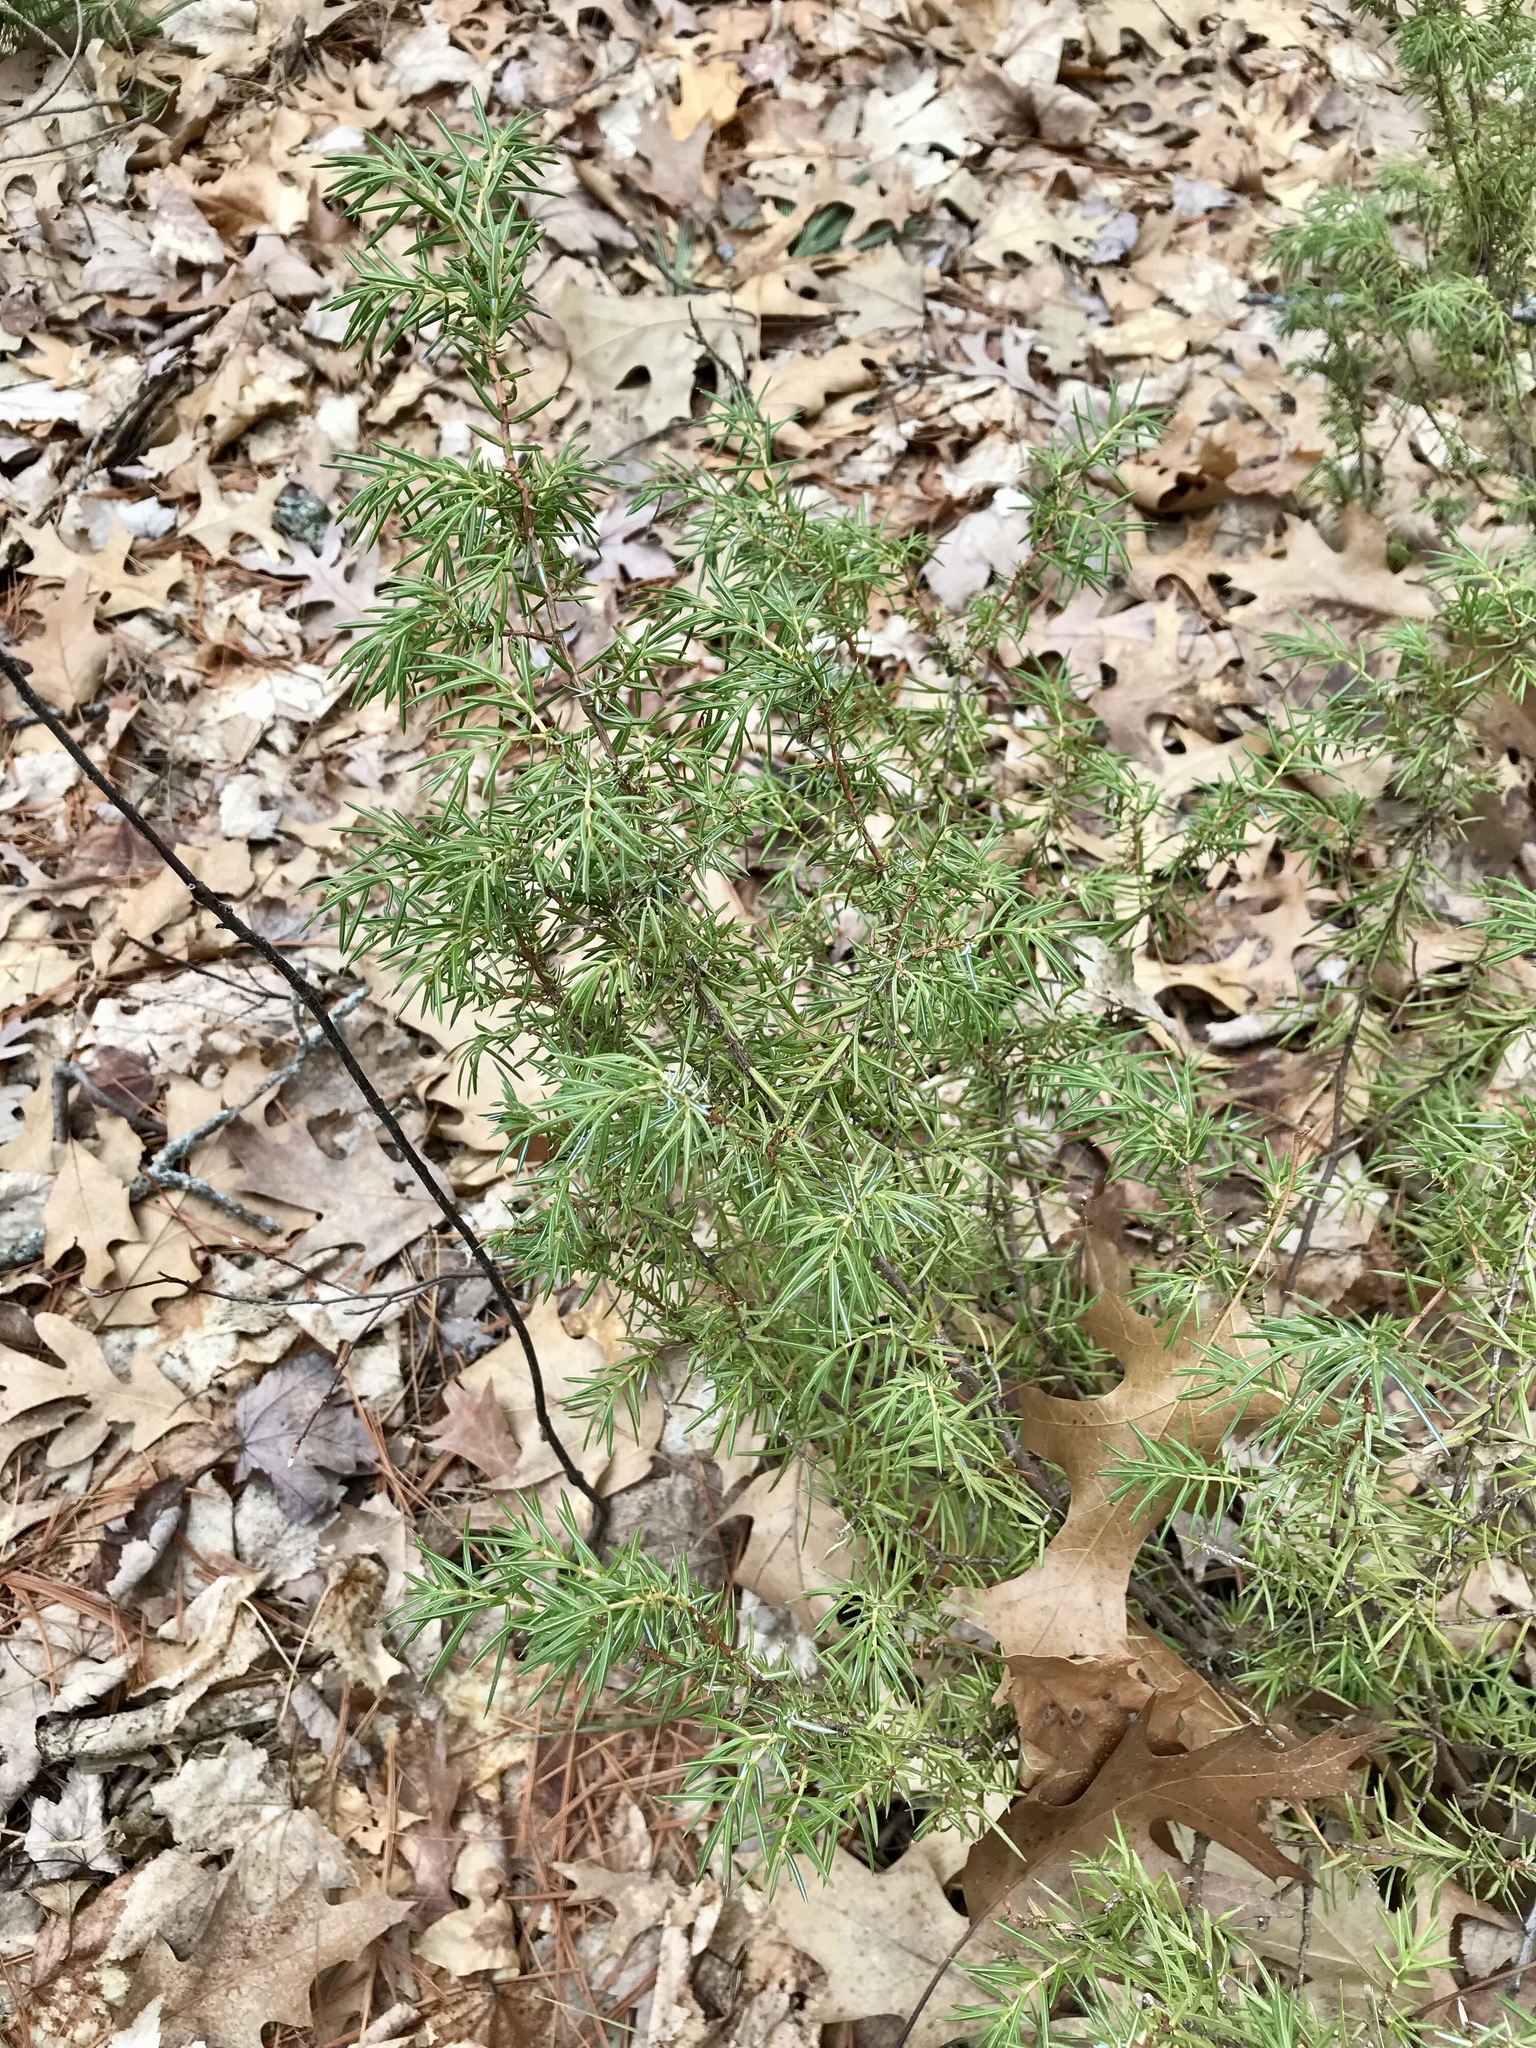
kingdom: Plantae
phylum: Tracheophyta
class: Pinopsida
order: Pinales
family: Cupressaceae
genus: Juniperus
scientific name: Juniperus communis
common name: Common juniper
